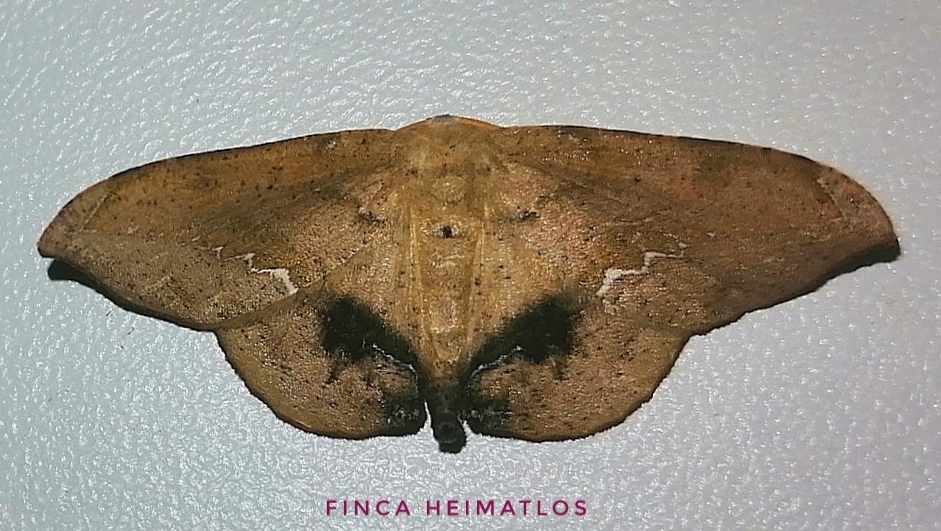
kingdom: Animalia
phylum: Arthropoda
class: Insecta
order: Lepidoptera
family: Geometridae
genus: Patalene
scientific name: Patalene asychisaria
